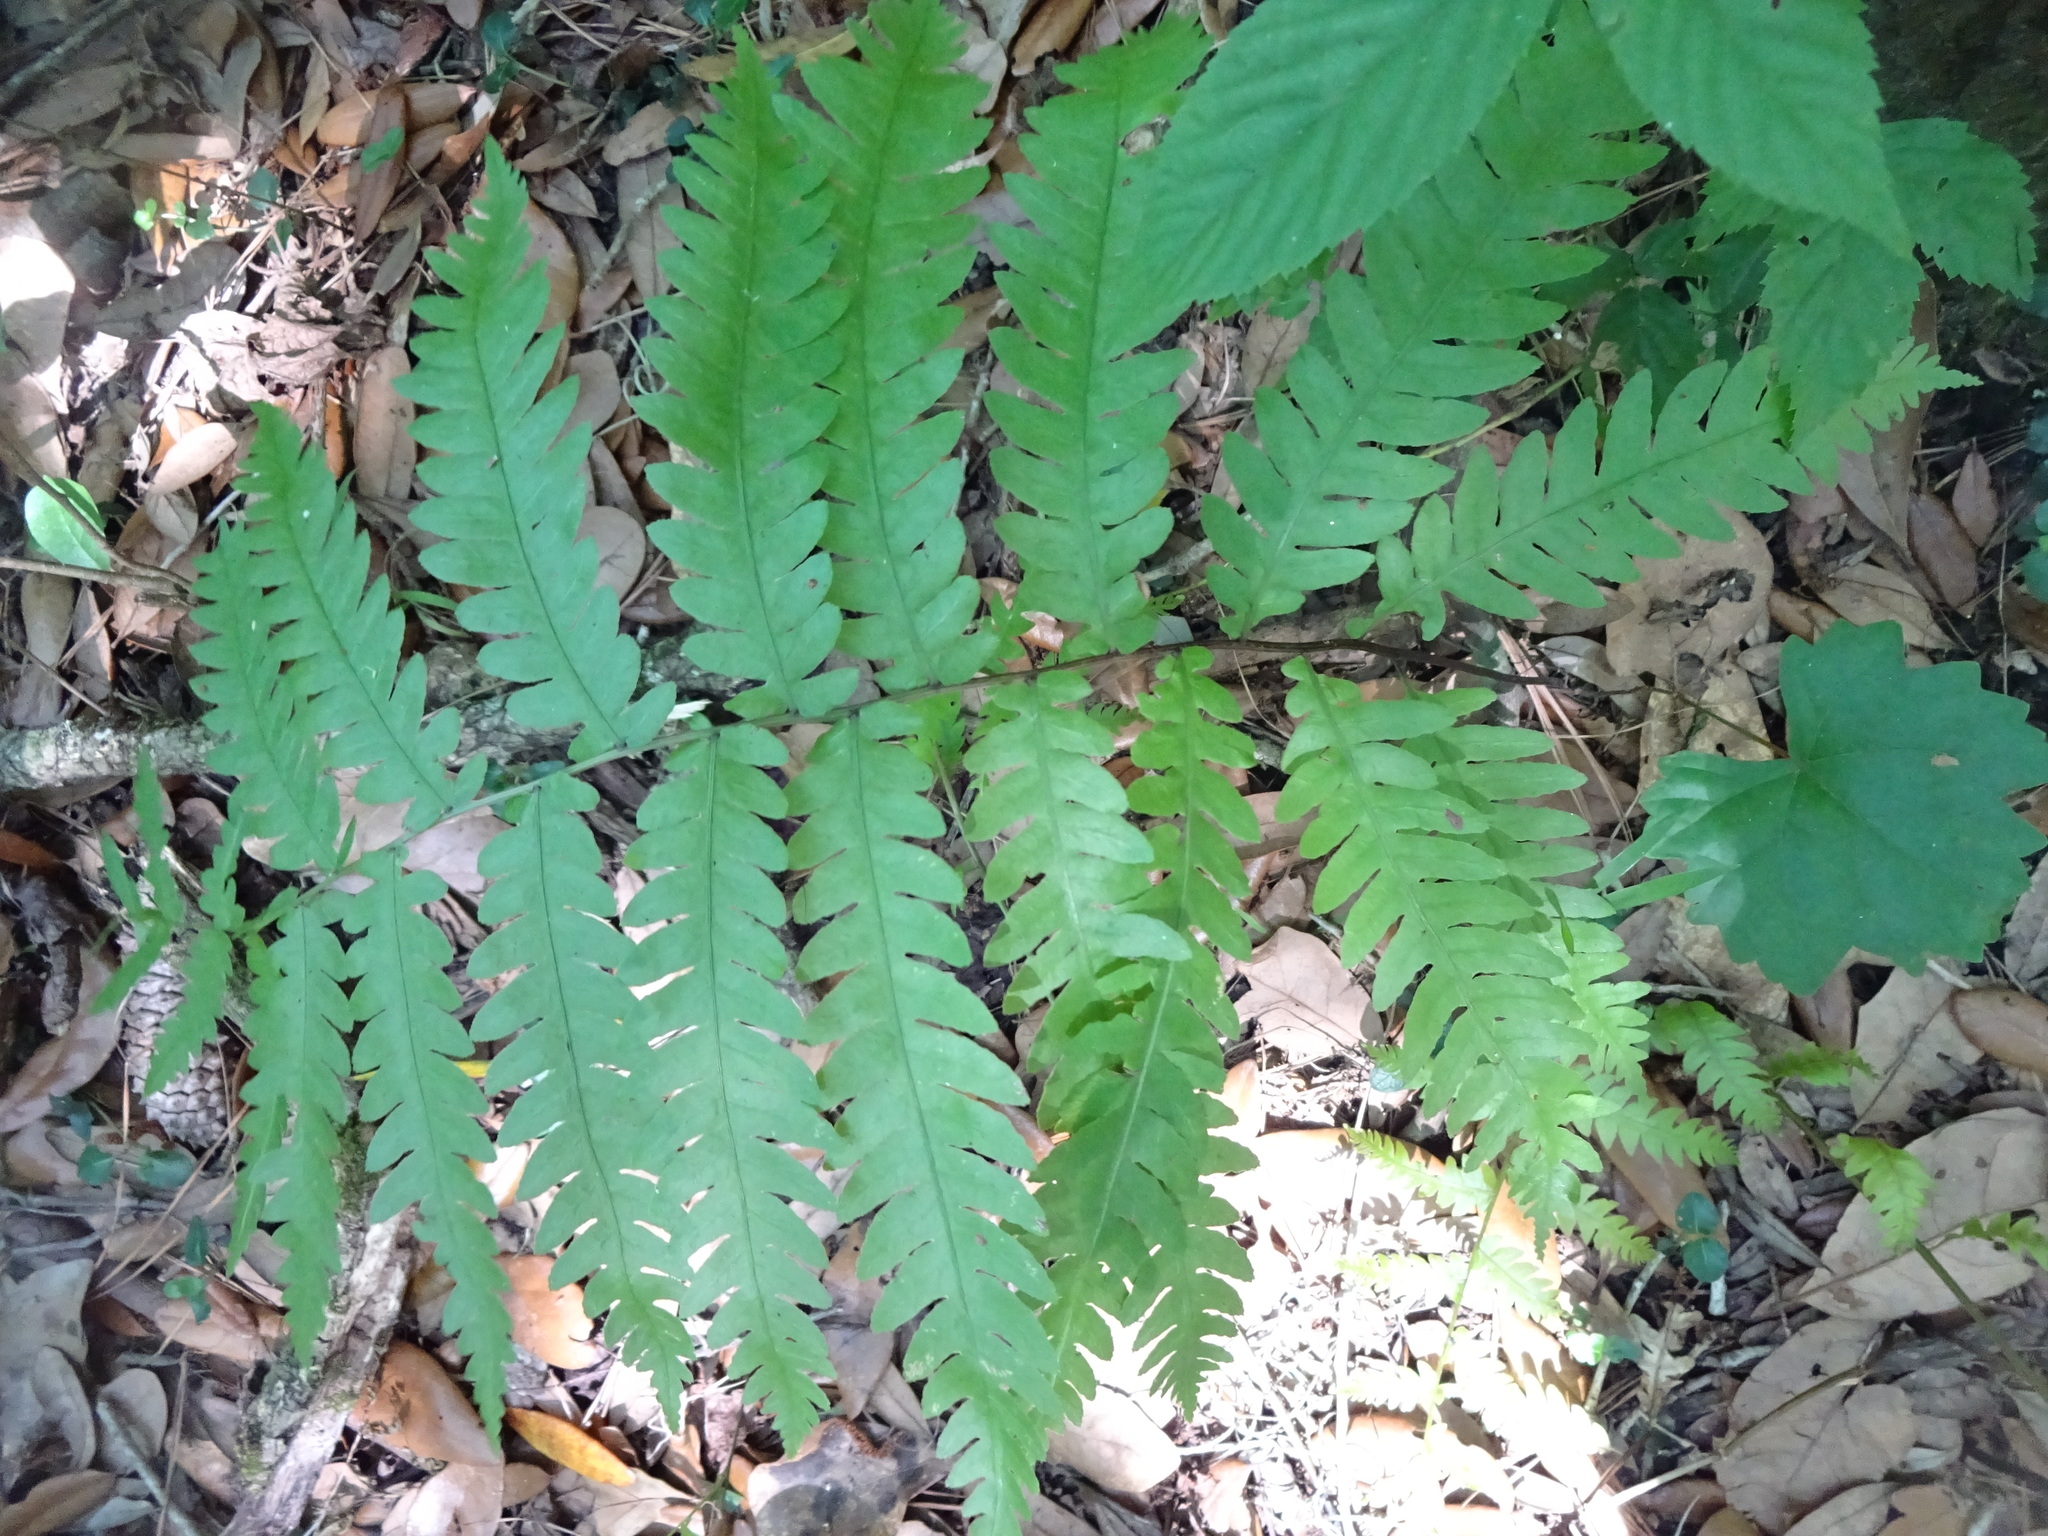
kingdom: Plantae
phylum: Tracheophyta
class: Polypodiopsida
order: Polypodiales
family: Blechnaceae
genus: Anchistea
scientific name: Anchistea virginica
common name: Virginia chain fern
